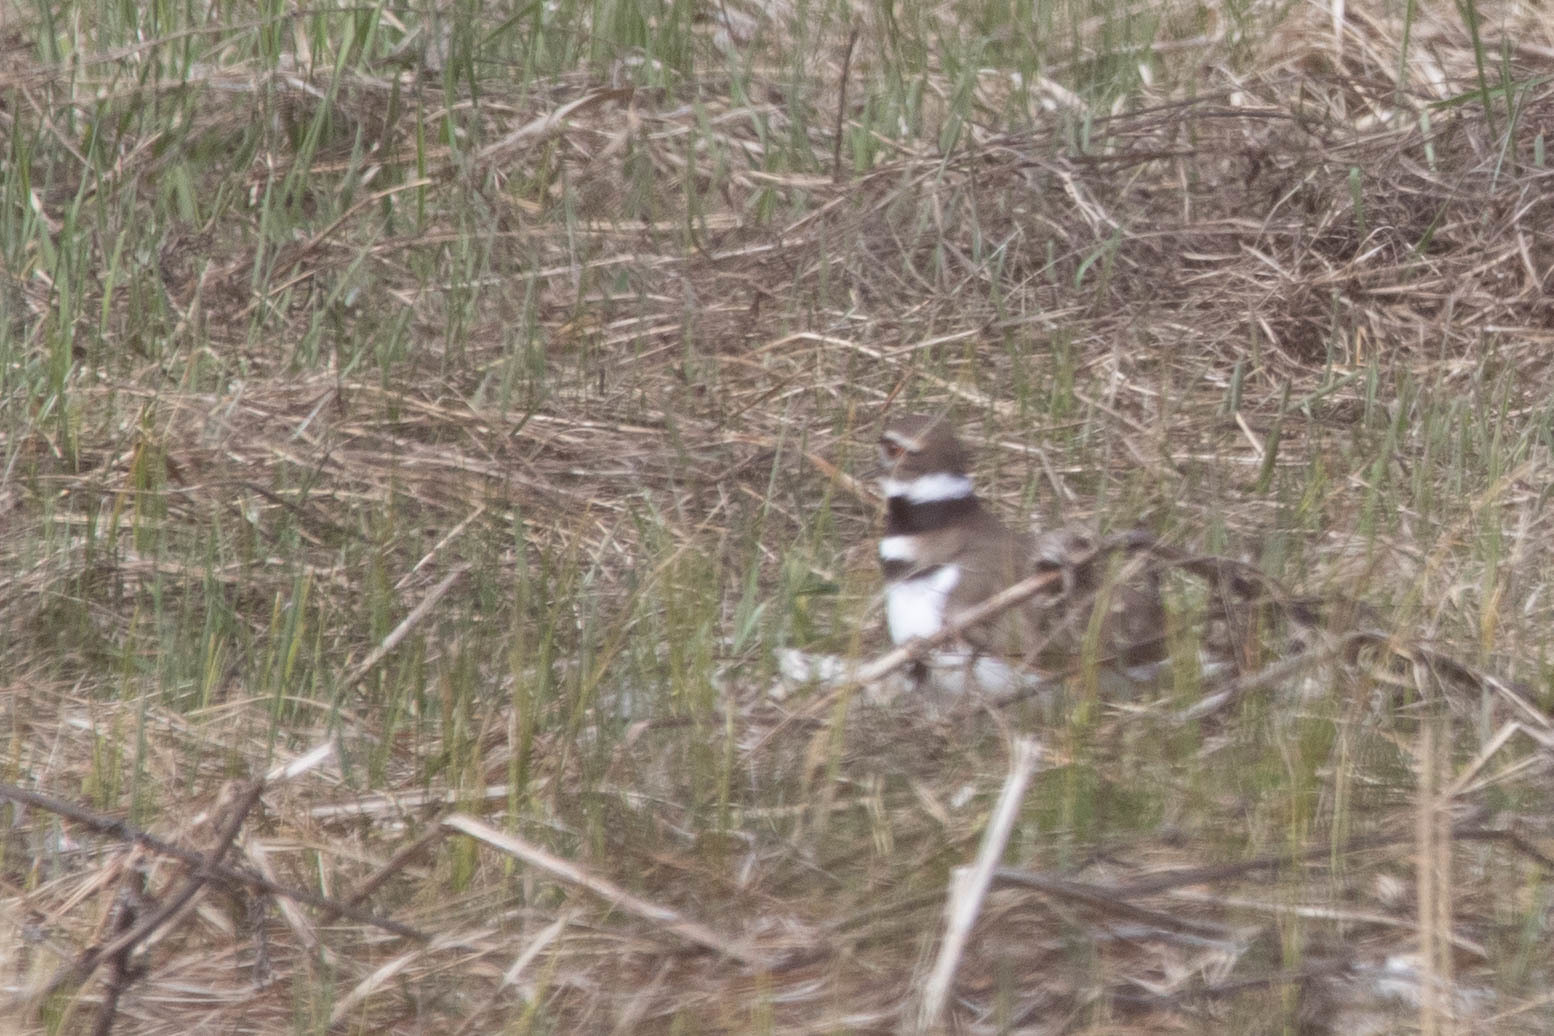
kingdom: Animalia
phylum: Chordata
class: Aves
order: Charadriiformes
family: Charadriidae
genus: Charadrius
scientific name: Charadrius vociferus
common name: Killdeer
